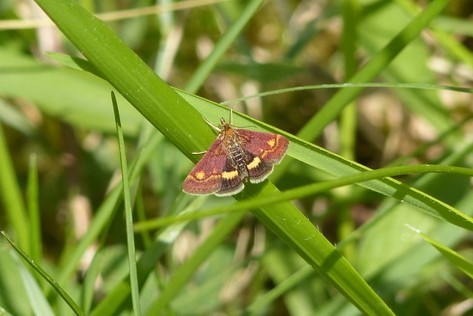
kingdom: Animalia
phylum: Arthropoda
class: Insecta
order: Lepidoptera
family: Crambidae
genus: Pyrausta
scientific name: Pyrausta aurata
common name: Small purple & gold
